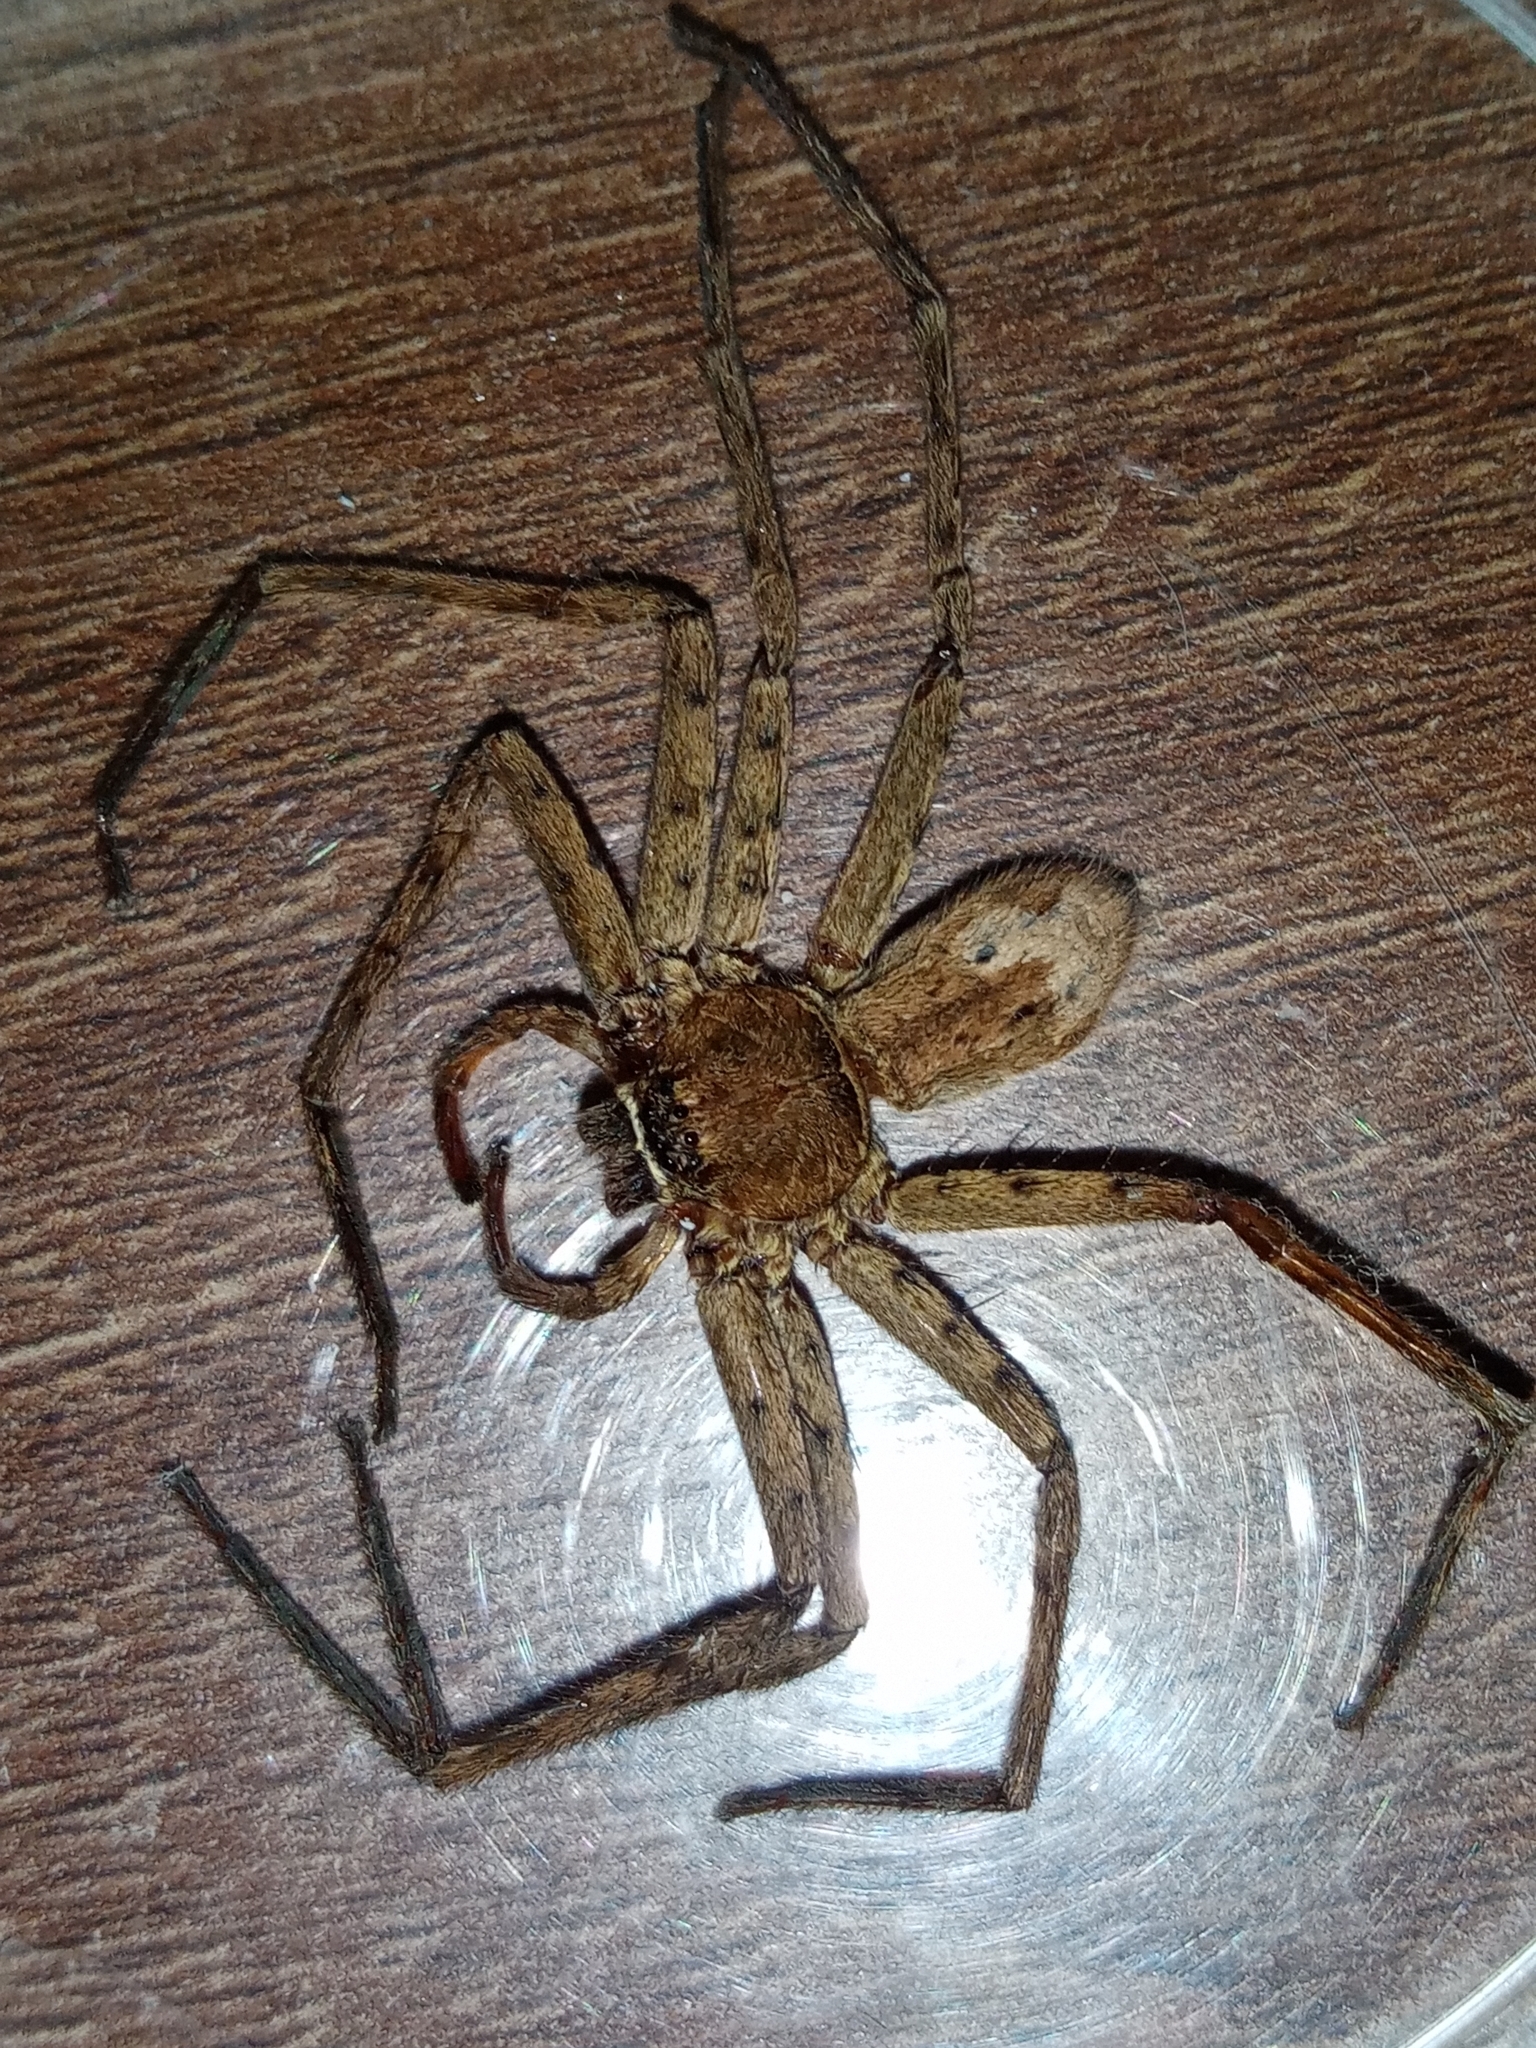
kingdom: Animalia
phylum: Arthropoda
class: Arachnida
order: Araneae
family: Sparassidae
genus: Heteropoda
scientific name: Heteropoda venatoria
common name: Huntsman spider
